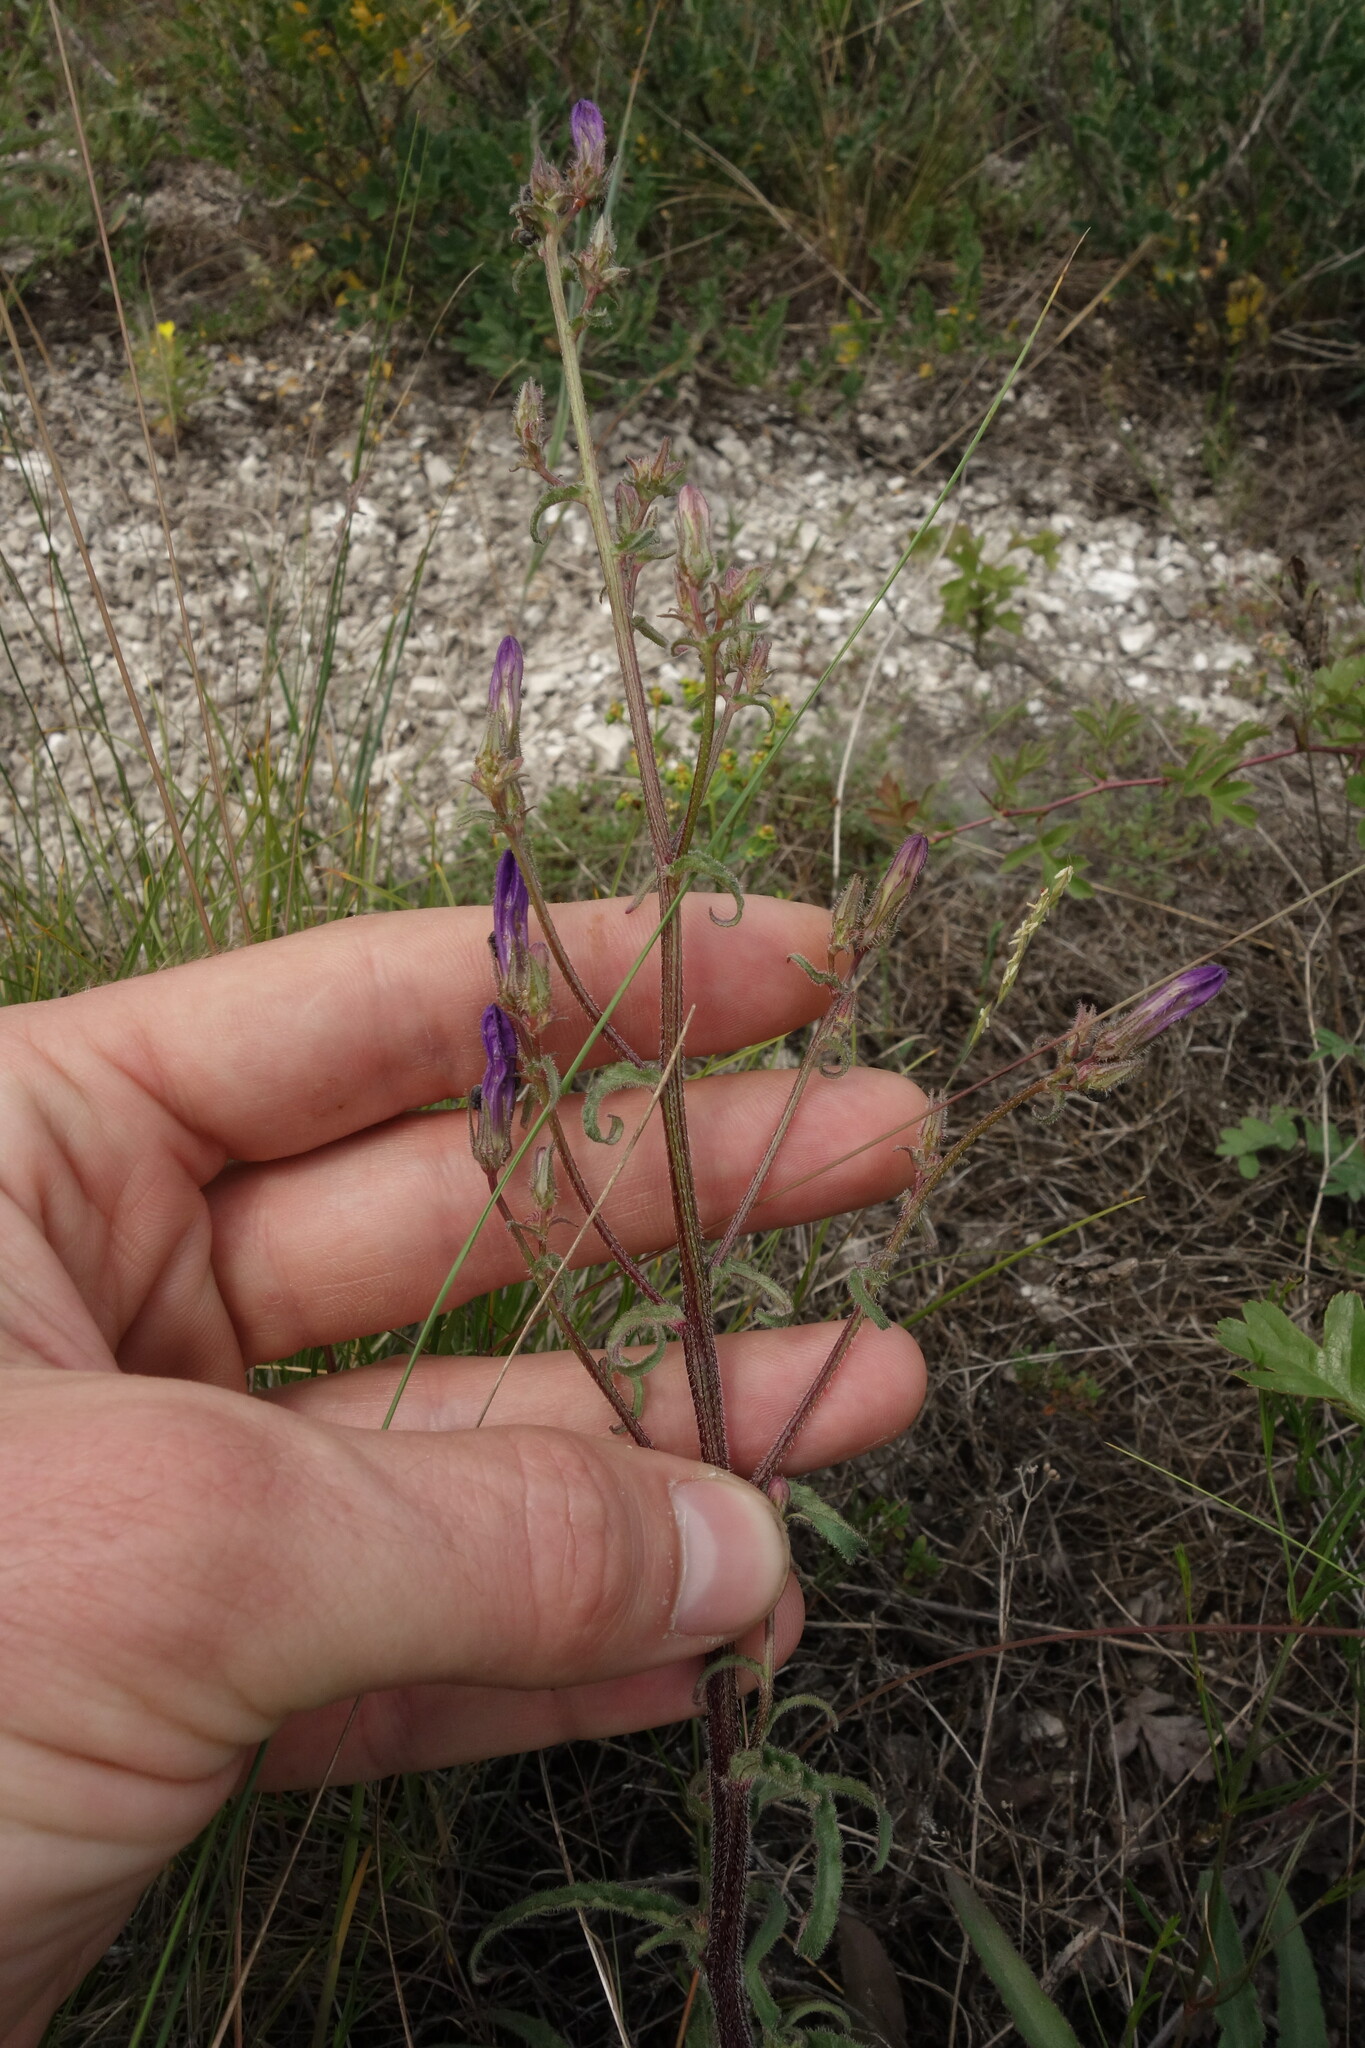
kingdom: Plantae
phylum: Tracheophyta
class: Magnoliopsida
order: Asterales
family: Campanulaceae
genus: Campanula
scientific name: Campanula sibirica
